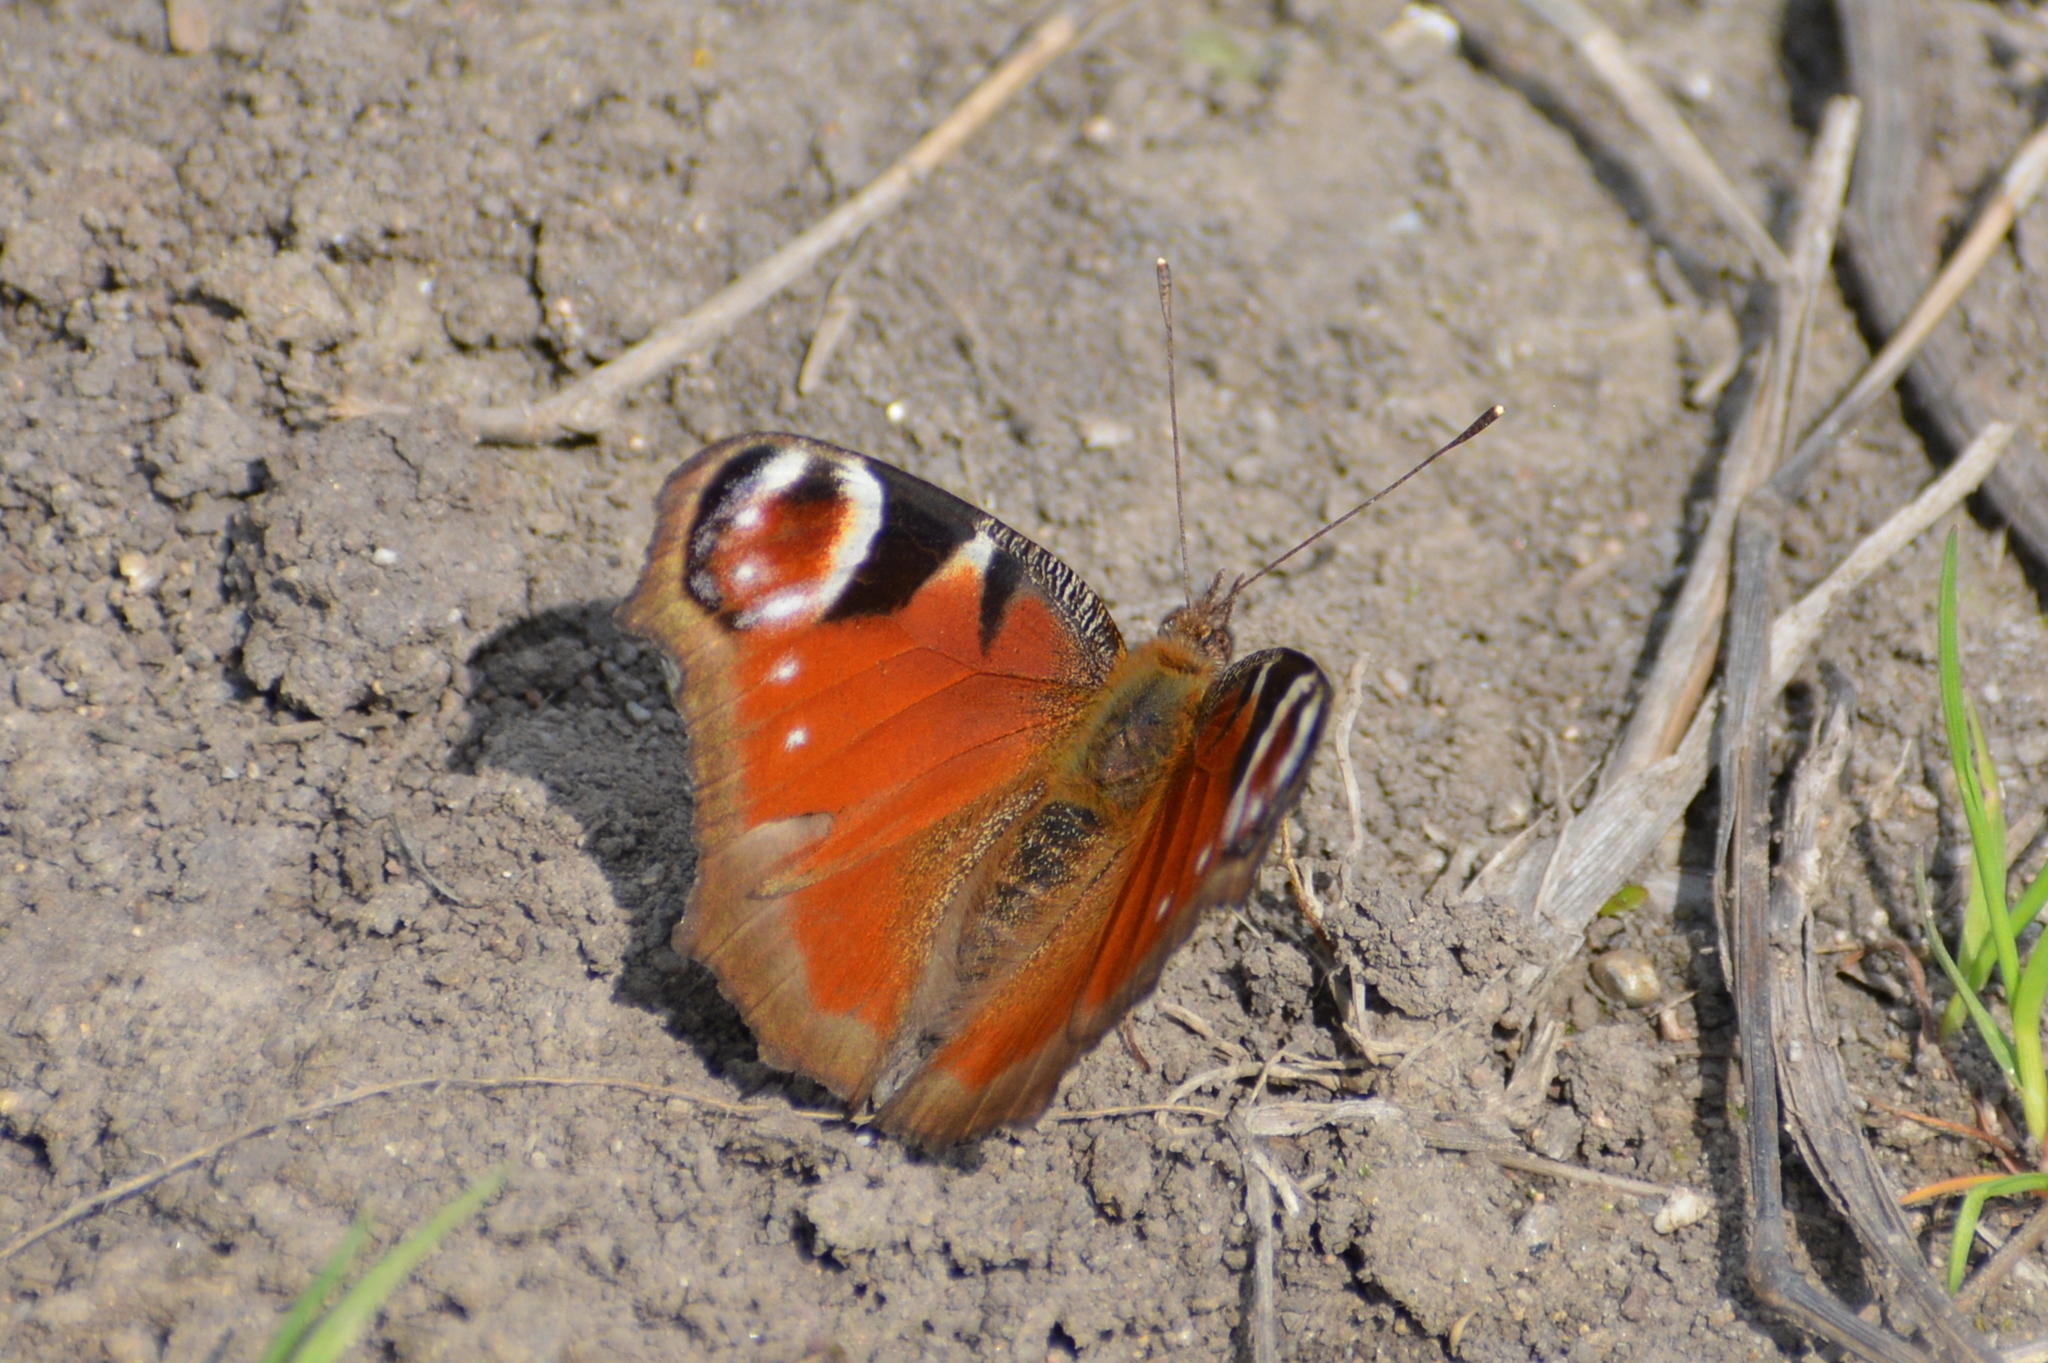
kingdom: Animalia
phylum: Arthropoda
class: Insecta
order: Lepidoptera
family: Nymphalidae
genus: Aglais
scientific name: Aglais io
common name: Peacock
